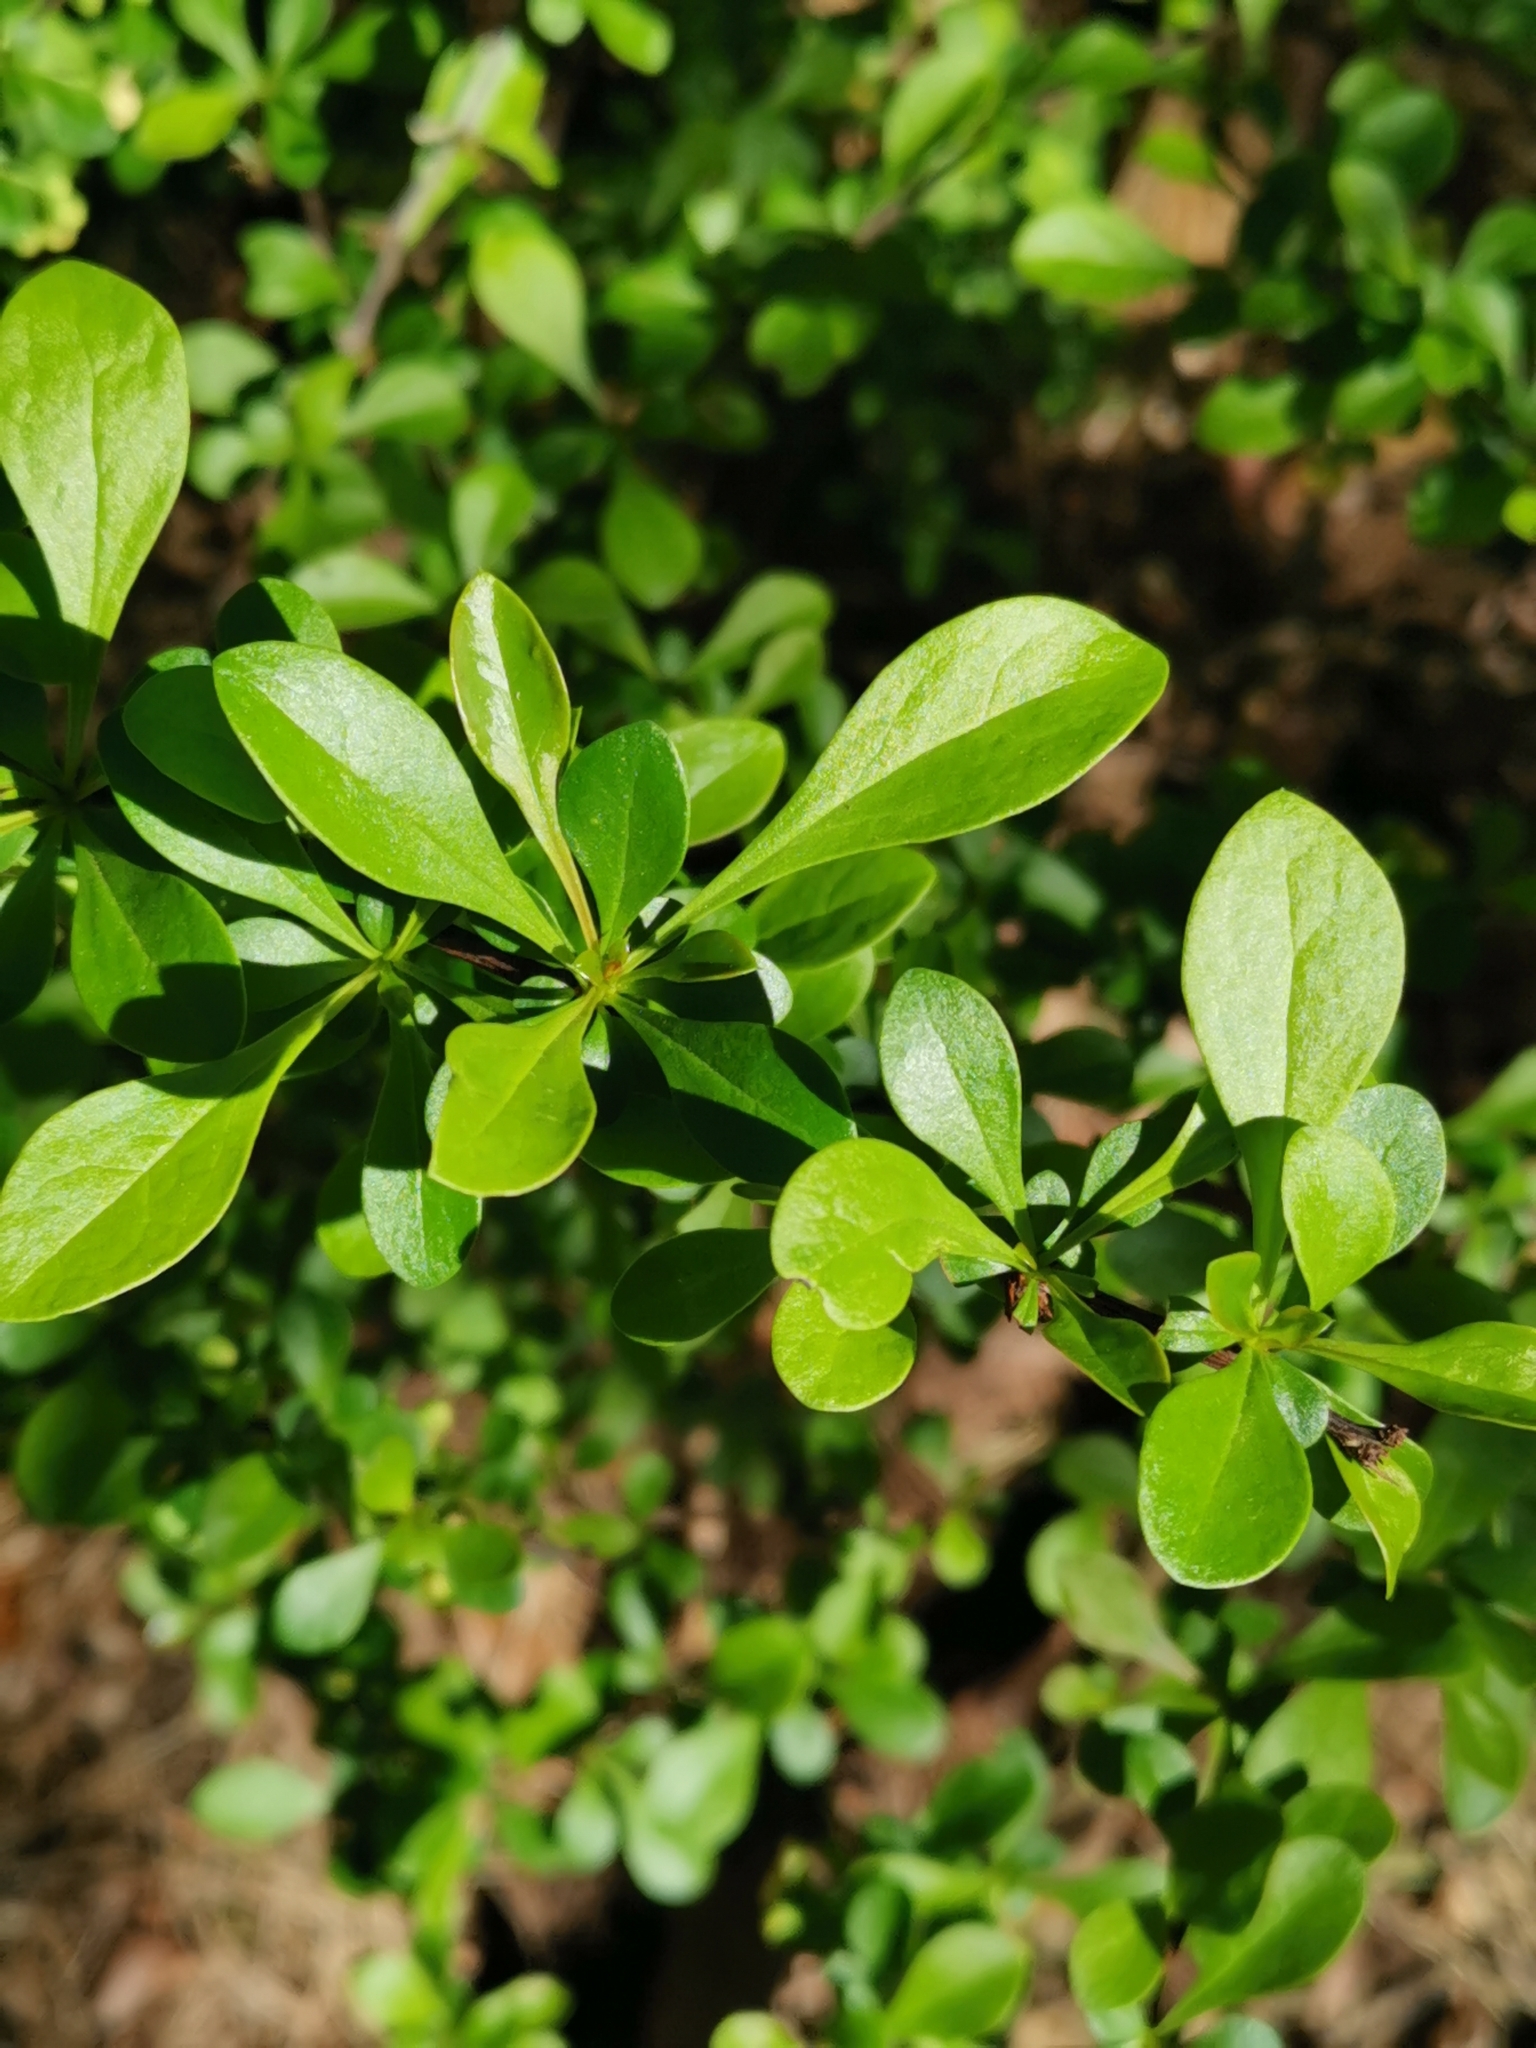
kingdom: Plantae
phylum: Tracheophyta
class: Magnoliopsida
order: Ranunculales
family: Berberidaceae
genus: Berberis
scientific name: Berberis vulgaris
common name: Barberry
